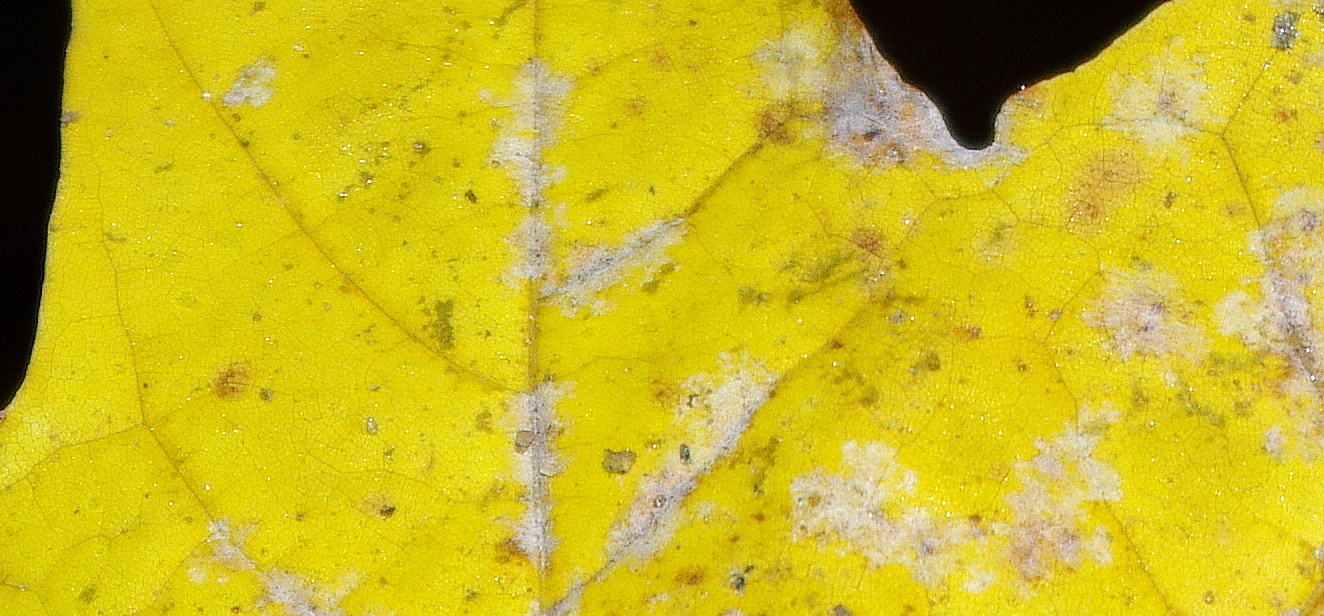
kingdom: Fungi
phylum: Ascomycota
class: Leotiomycetes
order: Helotiales
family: Erysiphaceae
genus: Sawadaea
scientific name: Sawadaea tulasnei
